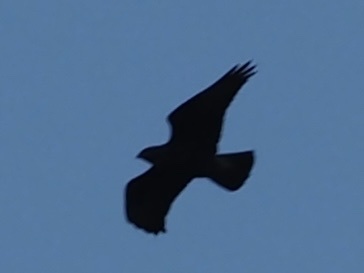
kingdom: Animalia
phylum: Chordata
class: Aves
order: Accipitriformes
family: Accipitridae
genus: Buteo
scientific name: Buteo buteo
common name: Common buzzard
